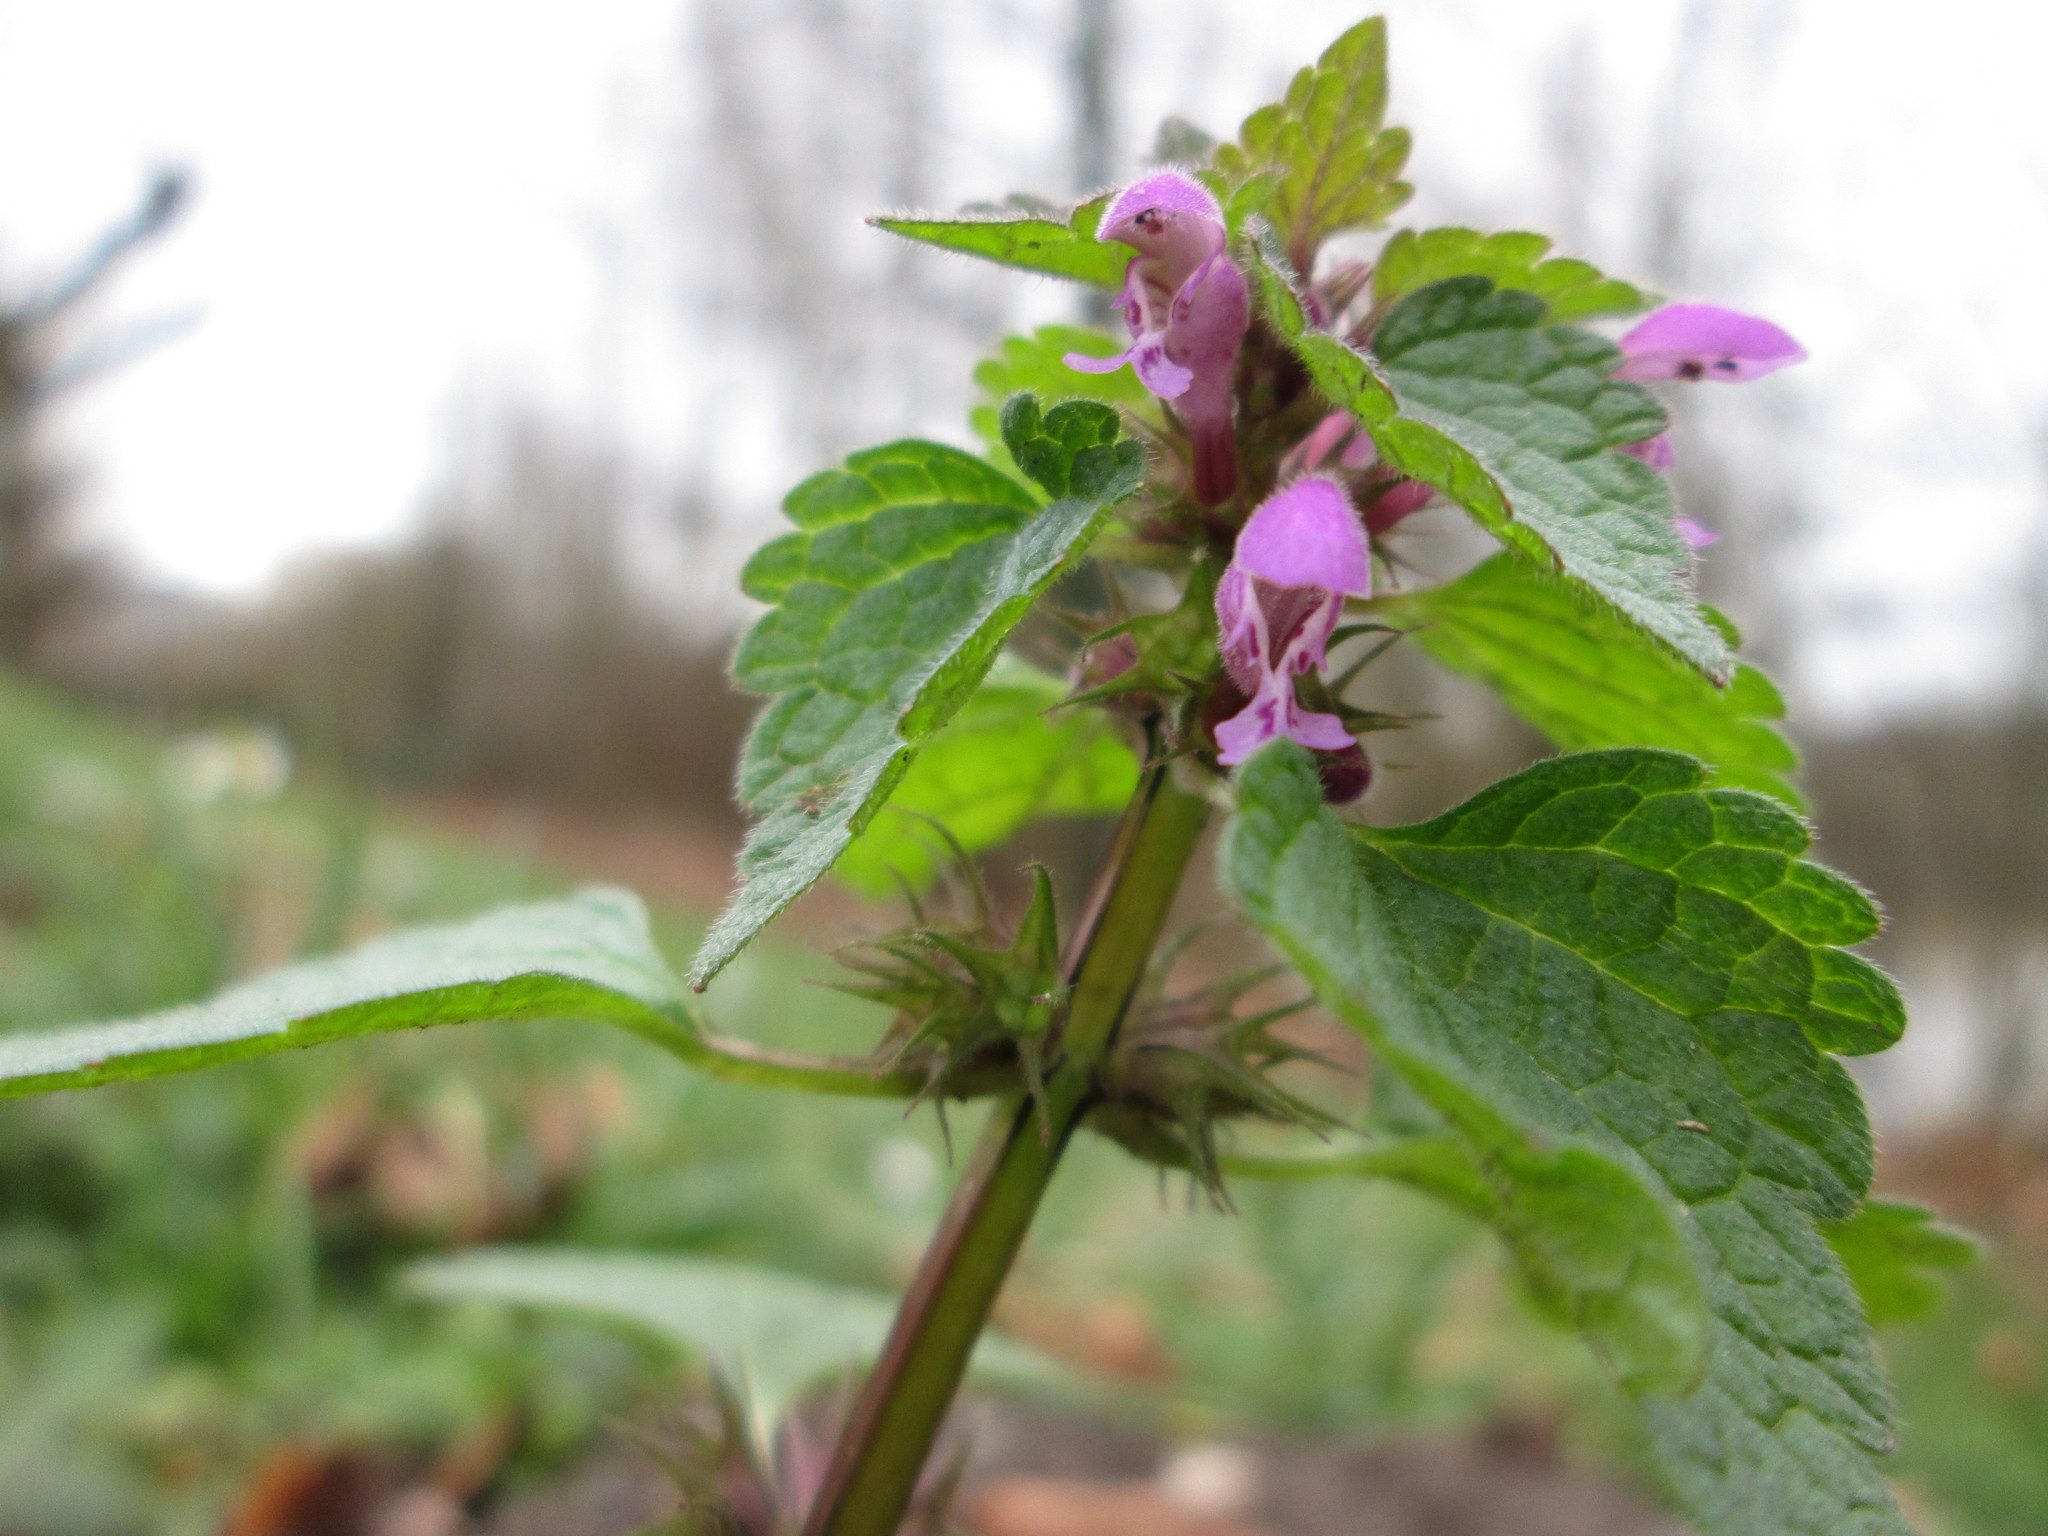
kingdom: Plantae
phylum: Tracheophyta
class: Magnoliopsida
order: Lamiales
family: Lamiaceae
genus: Lamium
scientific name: Lamium purpureum
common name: Red dead-nettle
